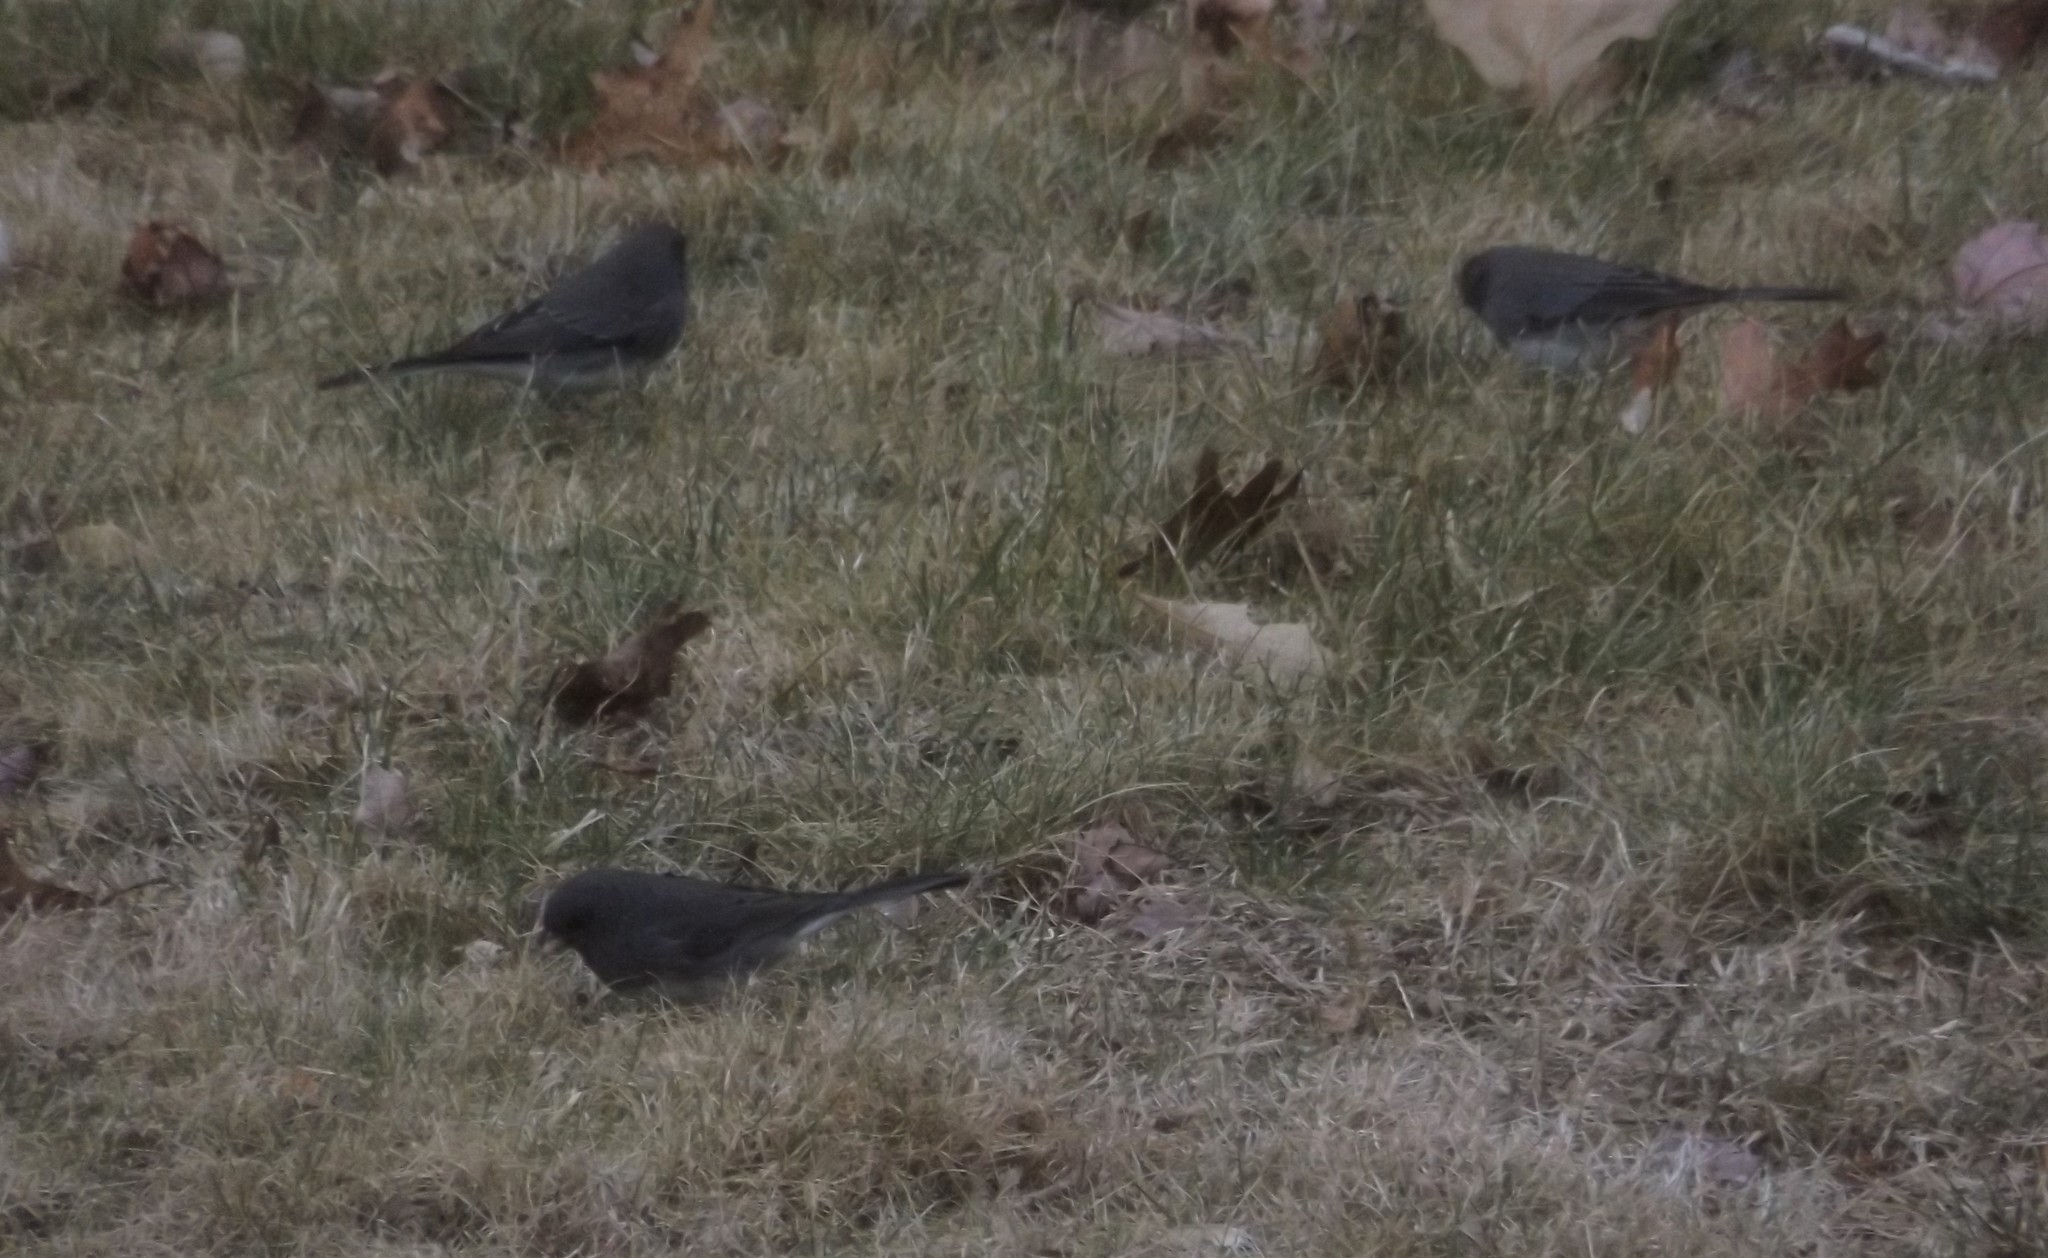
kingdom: Animalia
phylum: Chordata
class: Aves
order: Passeriformes
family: Passerellidae
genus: Junco
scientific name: Junco hyemalis
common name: Dark-eyed junco
